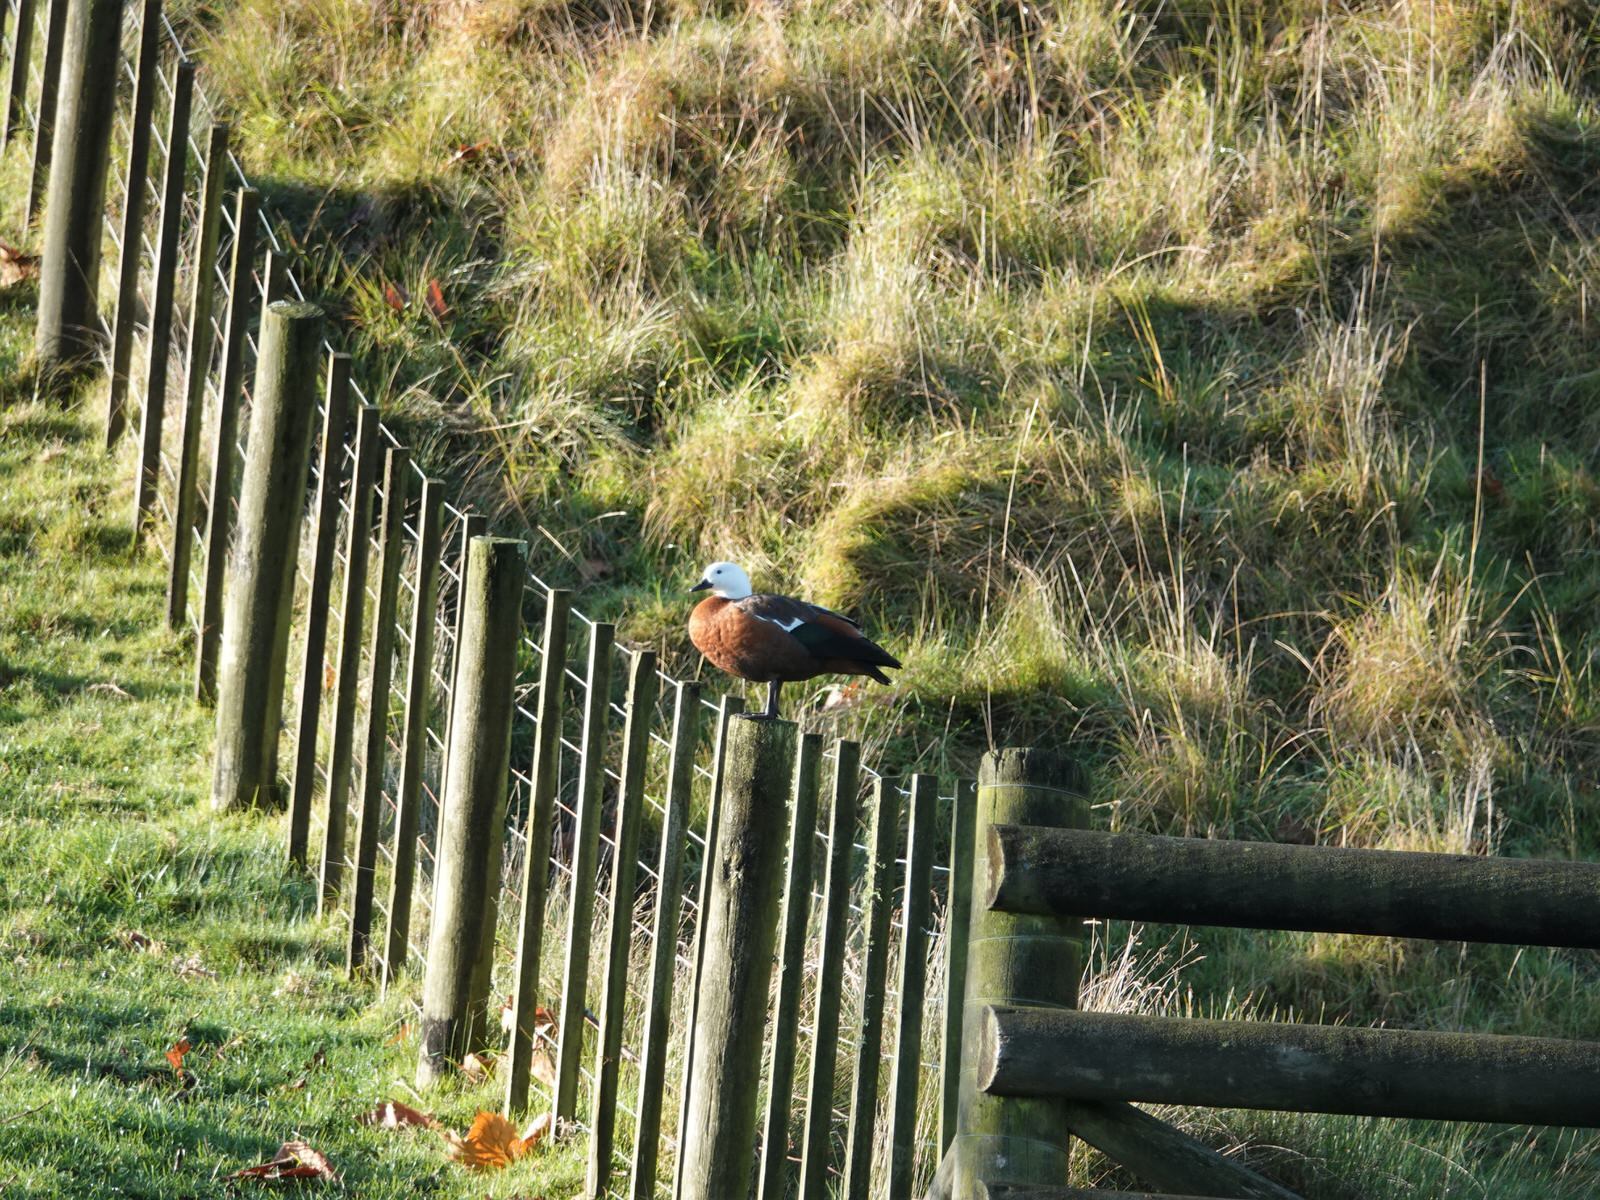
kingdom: Animalia
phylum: Chordata
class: Aves
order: Anseriformes
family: Anatidae
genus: Tadorna
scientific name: Tadorna variegata
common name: Paradise shelduck
